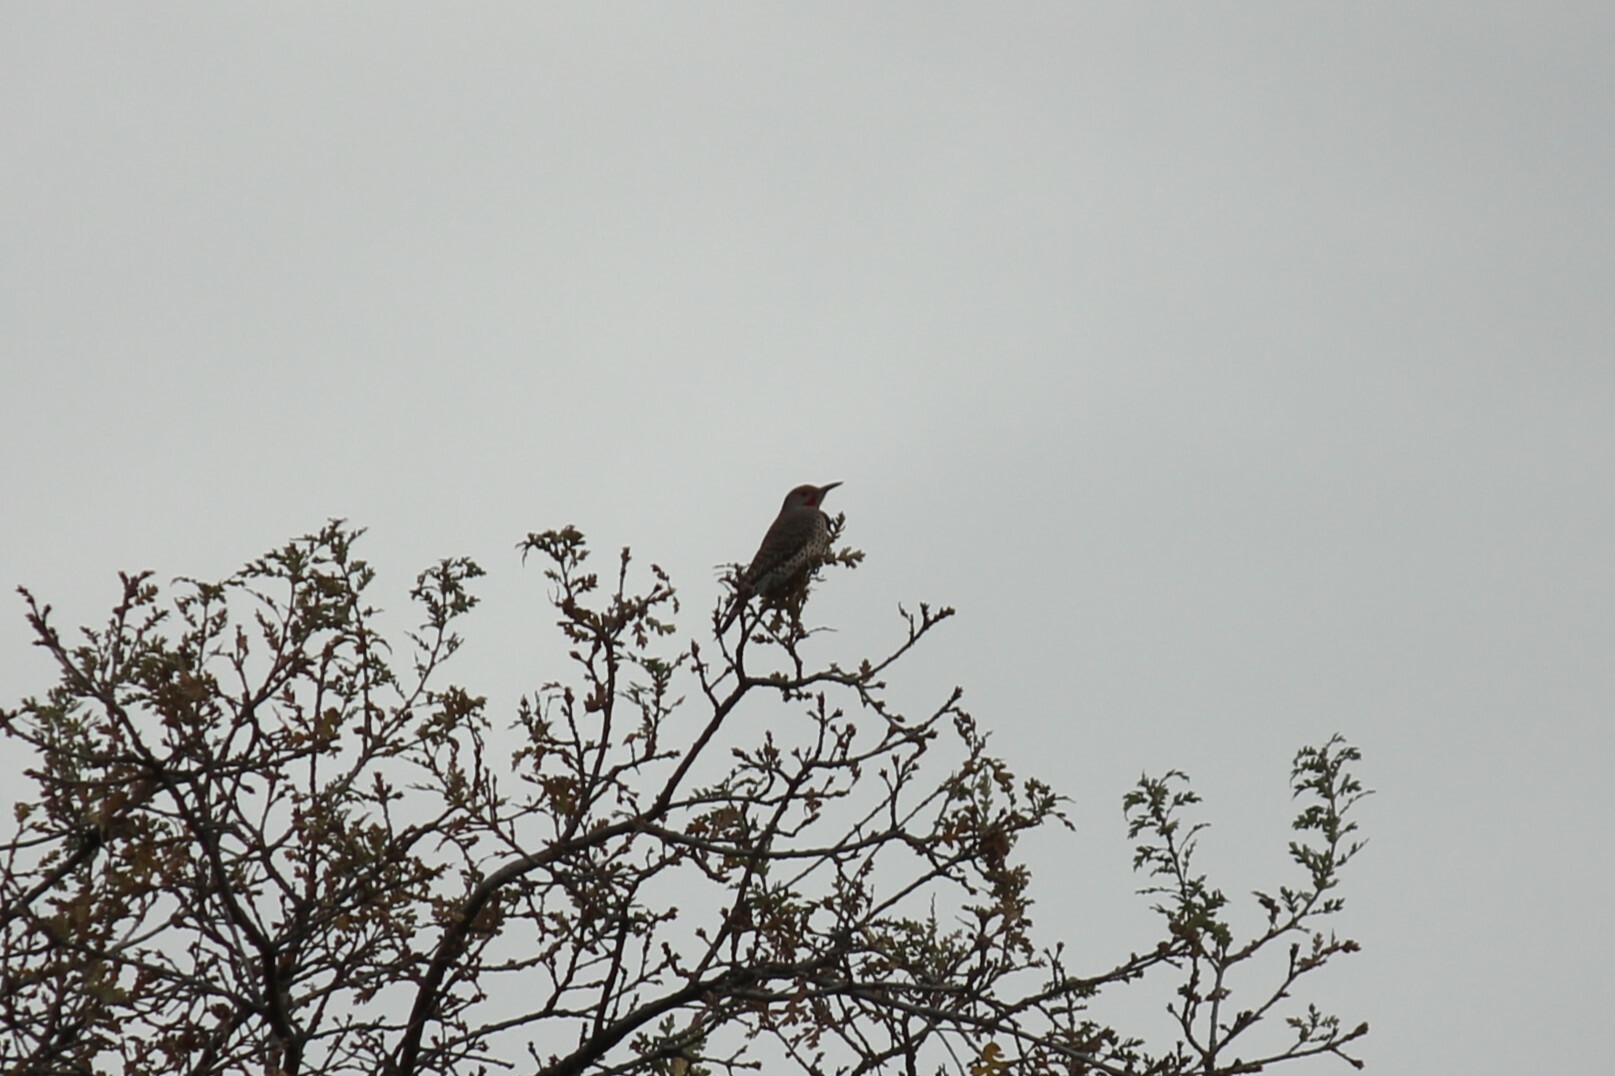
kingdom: Animalia
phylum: Chordata
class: Aves
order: Piciformes
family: Picidae
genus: Colaptes
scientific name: Colaptes auratus
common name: Northern flicker
